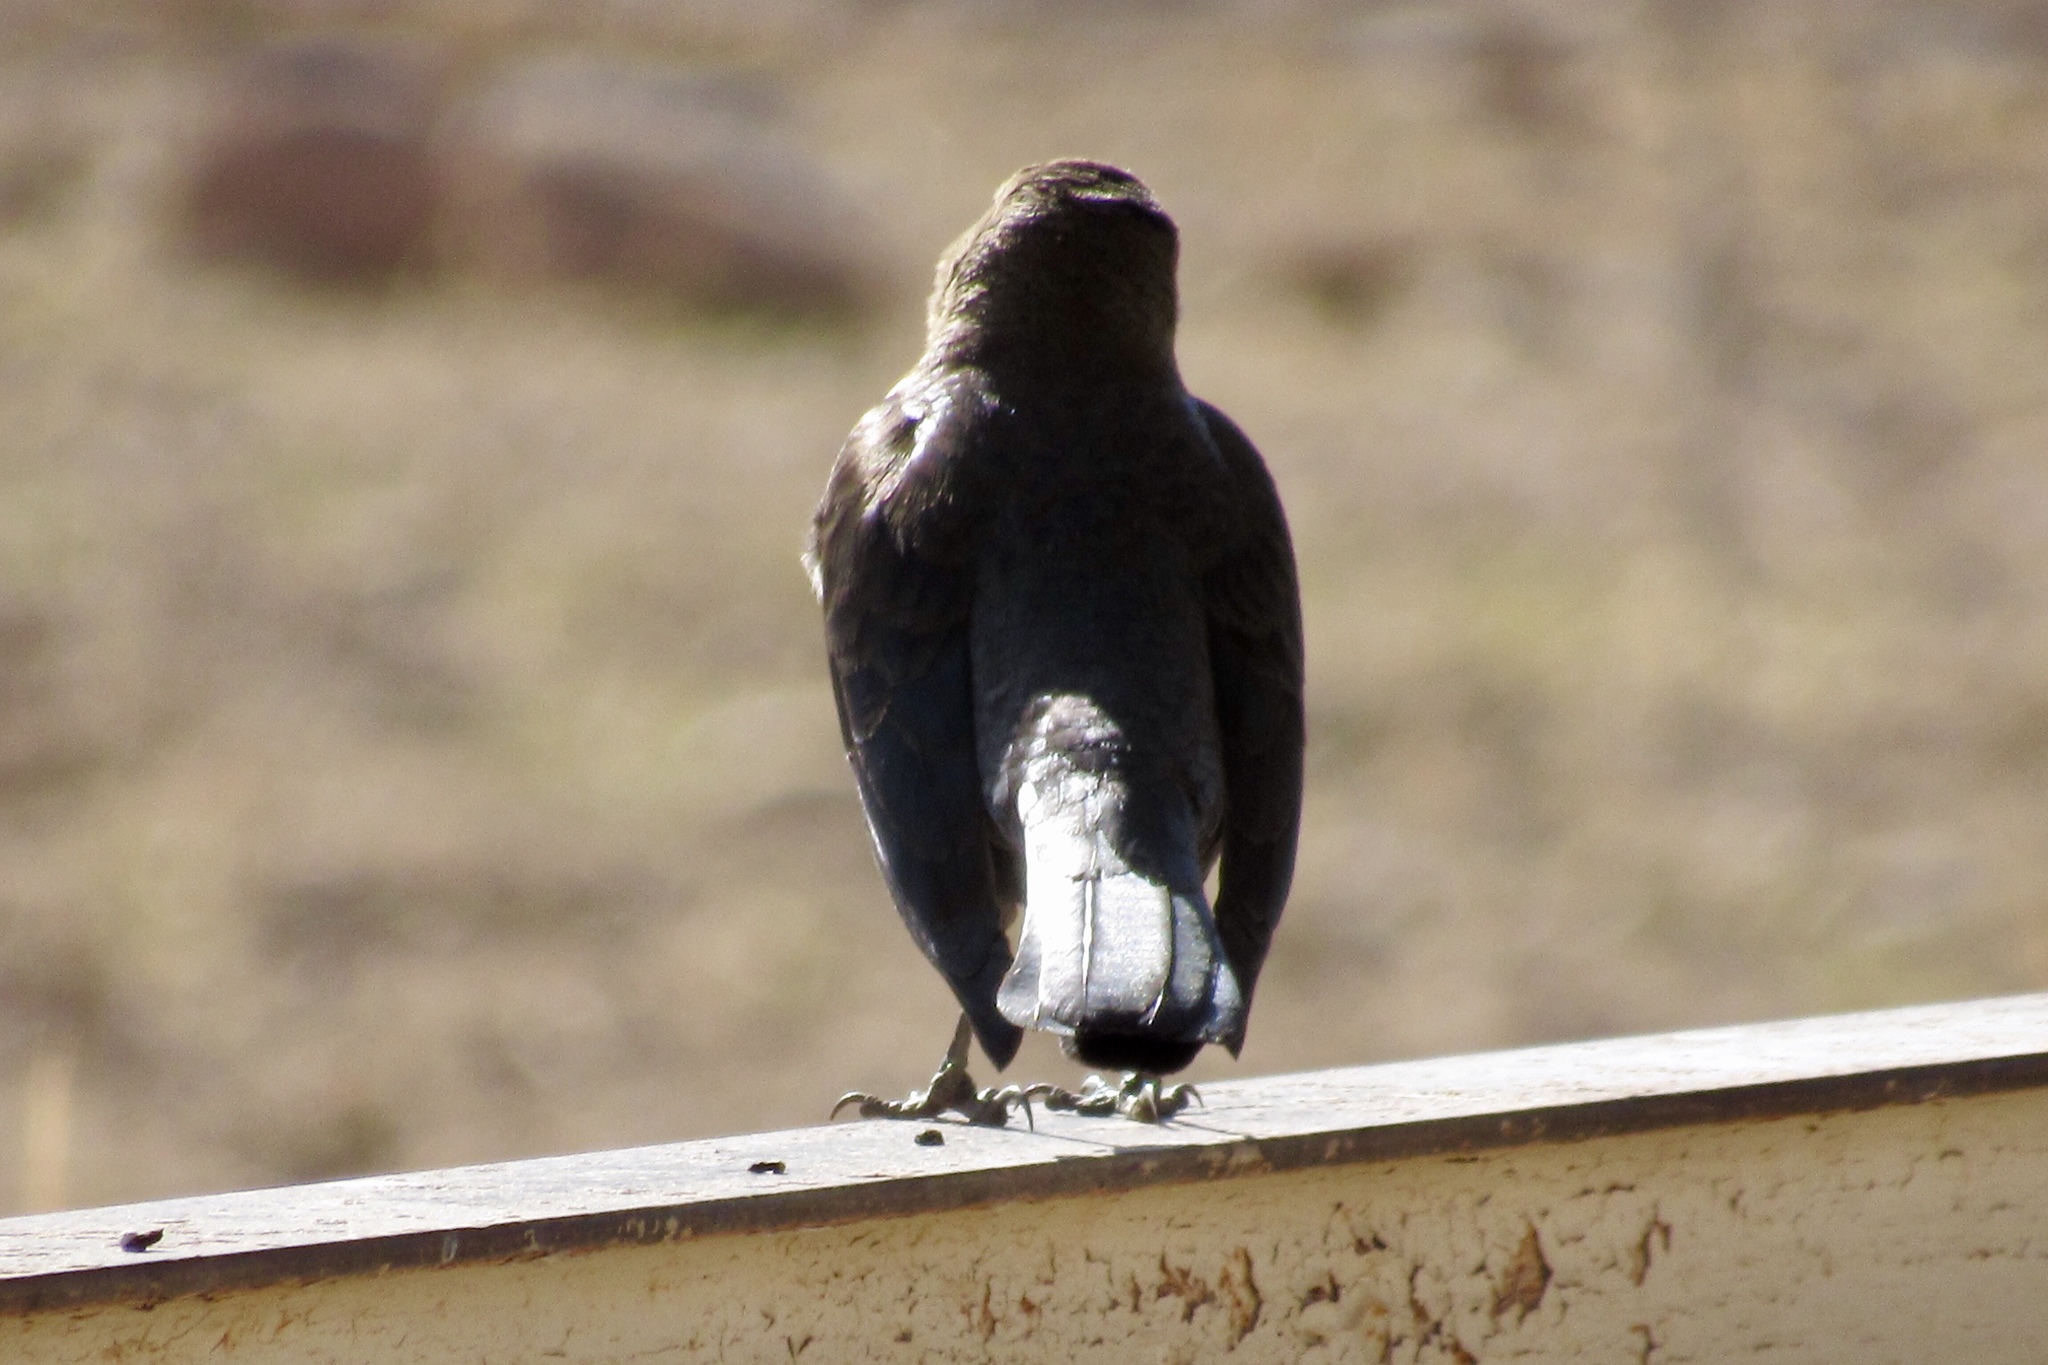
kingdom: Animalia
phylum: Chordata
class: Aves
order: Passeriformes
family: Icteridae
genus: Euphagus
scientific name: Euphagus cyanocephalus
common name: Brewer's blackbird
